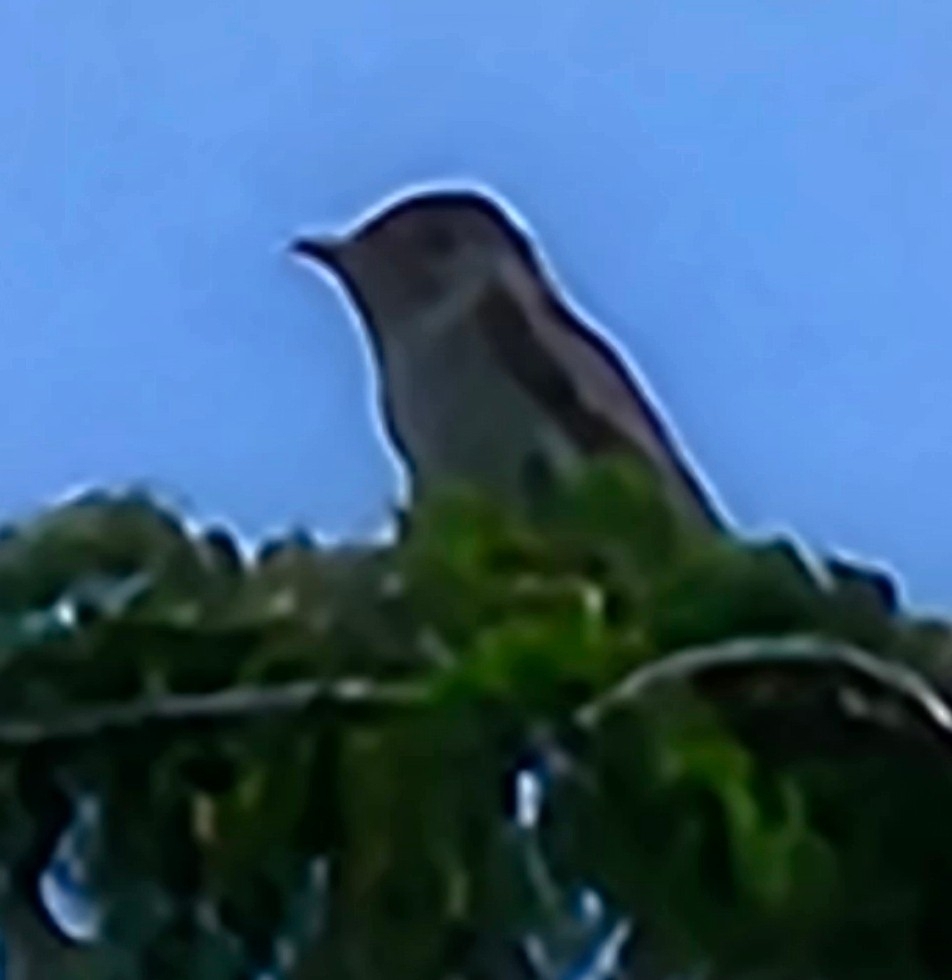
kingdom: Animalia
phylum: Chordata
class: Aves
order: Passeriformes
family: Tyrannidae
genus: Contopus
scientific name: Contopus virens
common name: Eastern wood-pewee
